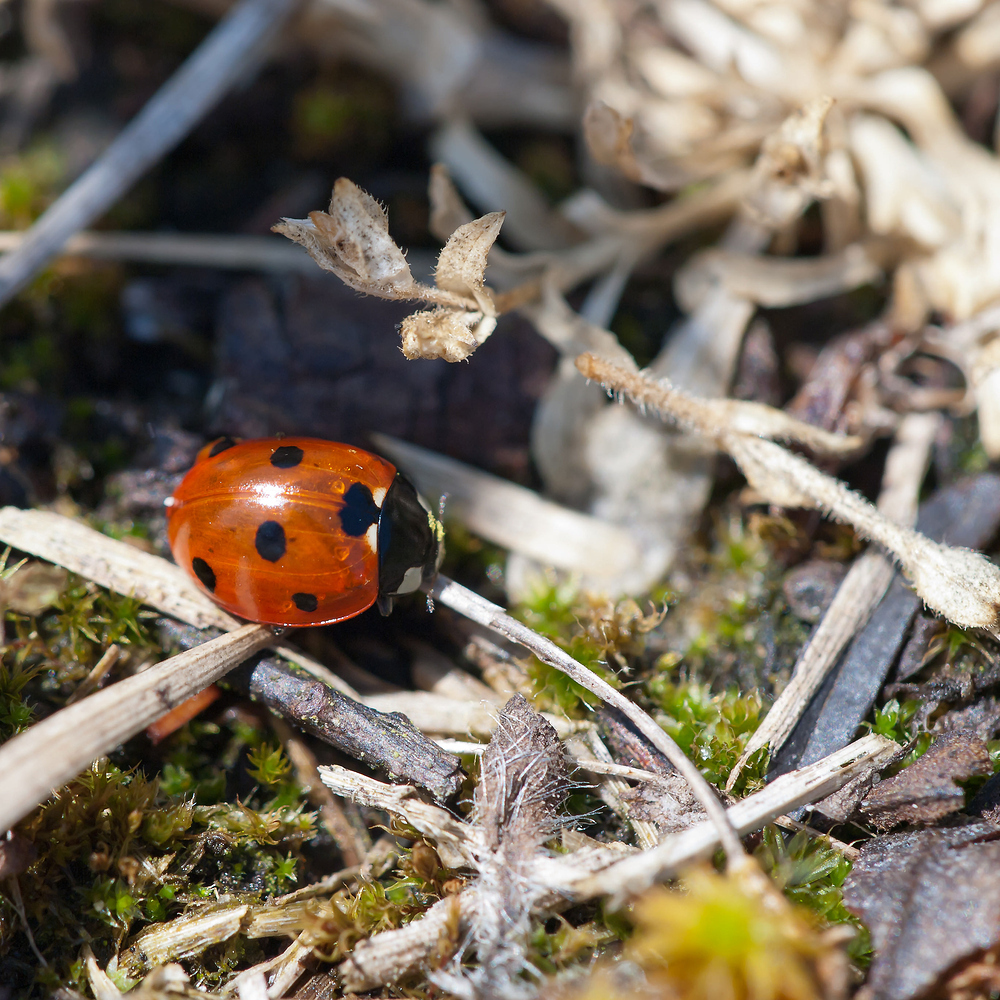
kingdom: Animalia
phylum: Arthropoda
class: Insecta
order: Coleoptera
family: Coccinellidae
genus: Coccinella
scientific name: Coccinella septempunctata
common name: Sevenspotted lady beetle
